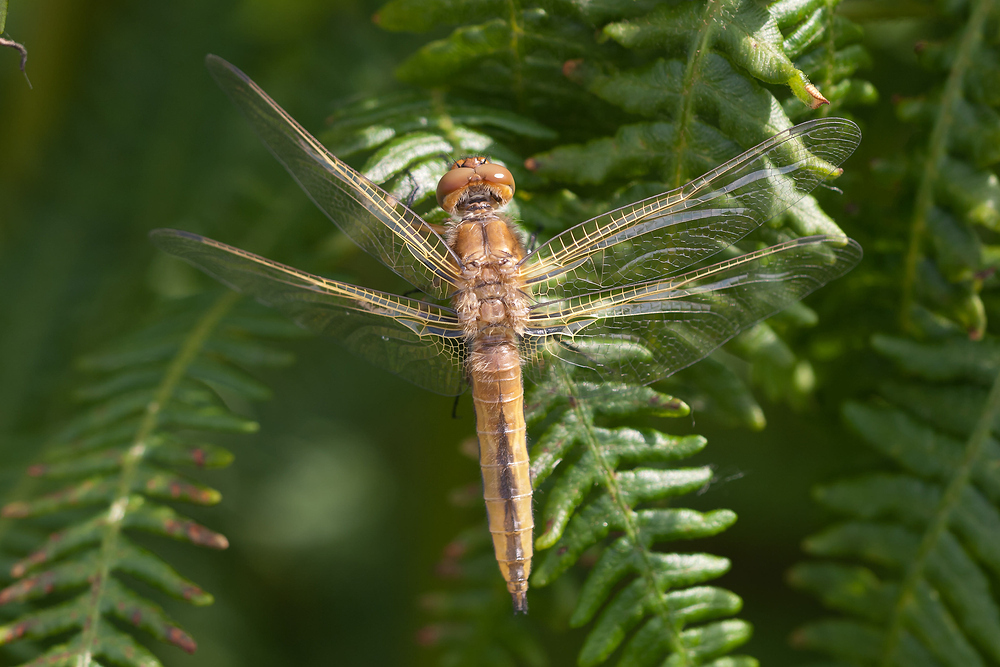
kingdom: Animalia
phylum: Arthropoda
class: Insecta
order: Odonata
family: Libellulidae
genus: Libellula
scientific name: Libellula fulva
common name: Blue chaser
